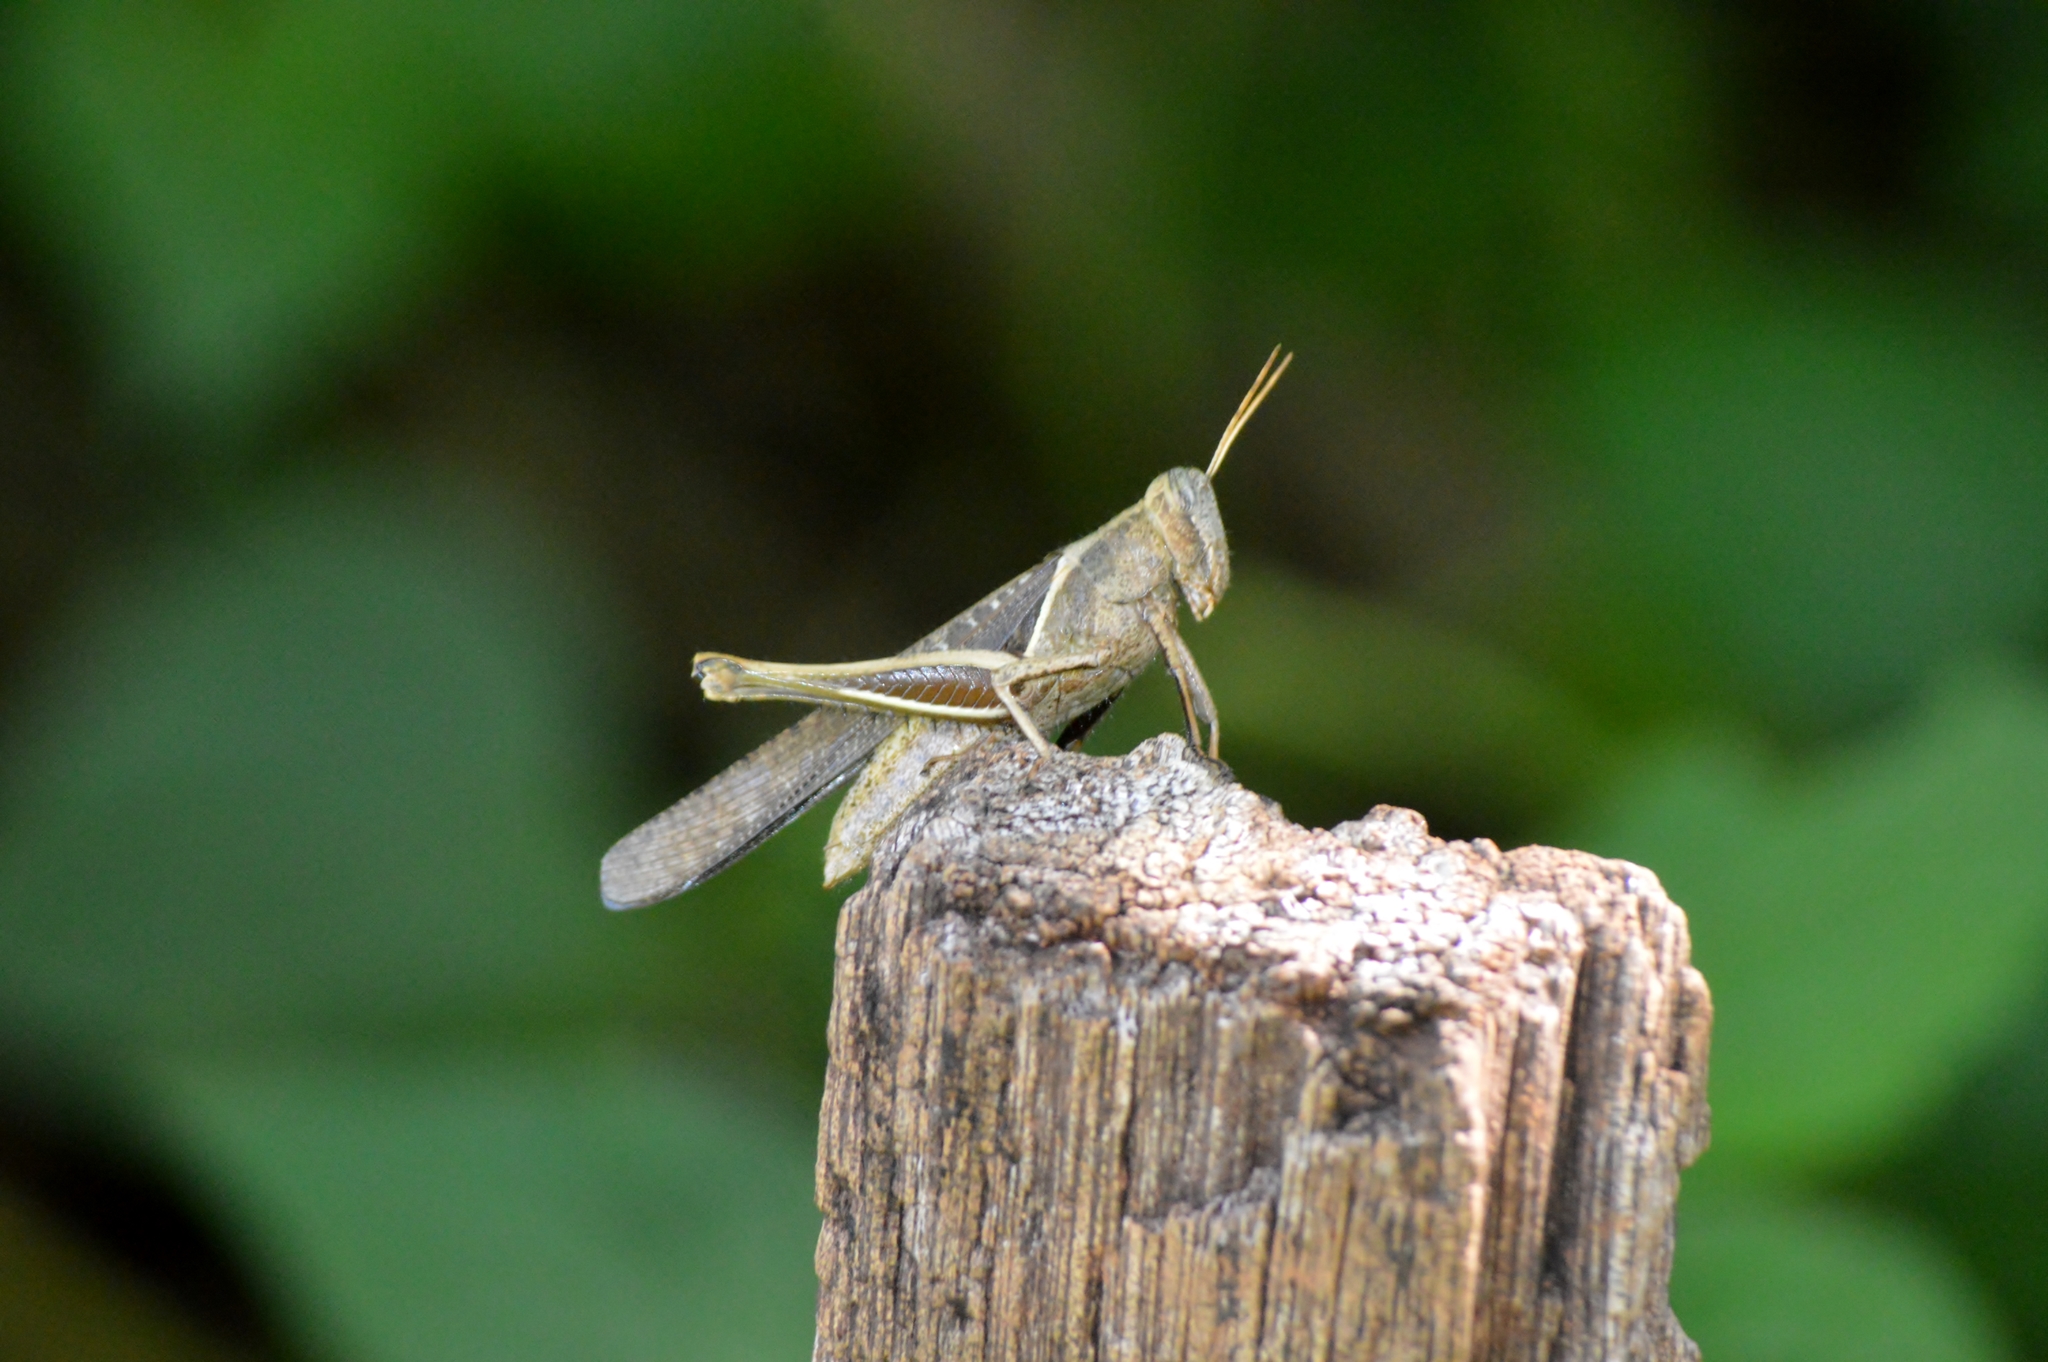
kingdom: Animalia
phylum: Arthropoda
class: Insecta
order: Orthoptera
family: Acrididae
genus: Abracris
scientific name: Abracris flavolineata
